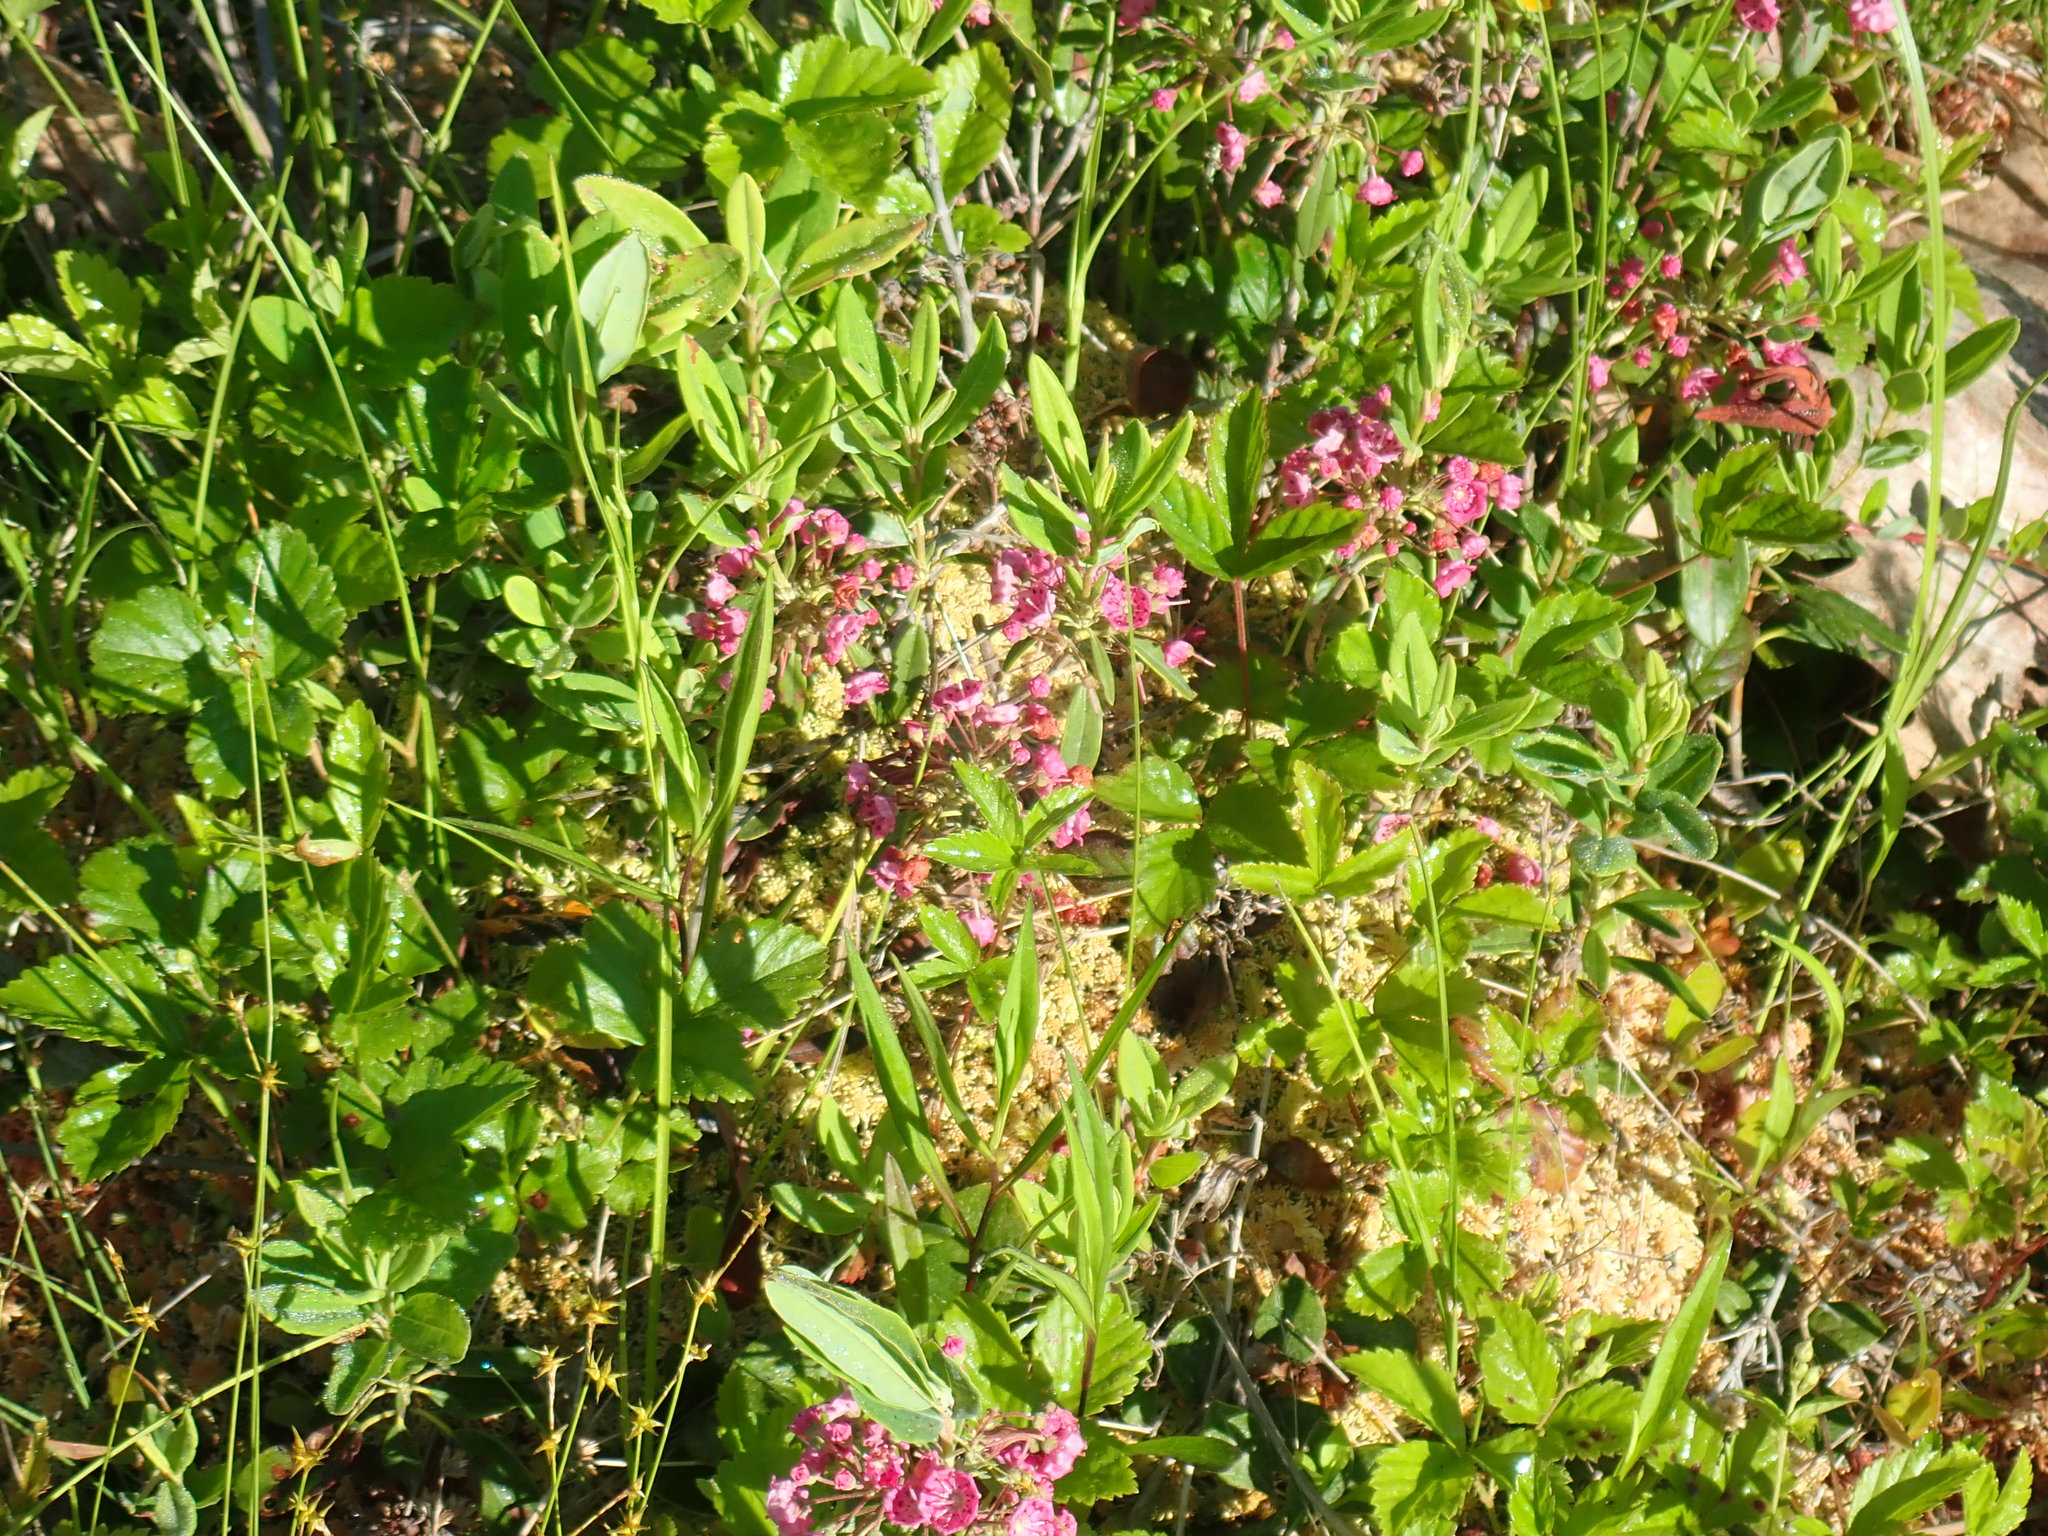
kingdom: Plantae
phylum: Tracheophyta
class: Magnoliopsida
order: Ericales
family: Ericaceae
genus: Kalmia
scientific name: Kalmia angustifolia
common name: Sheep-laurel
